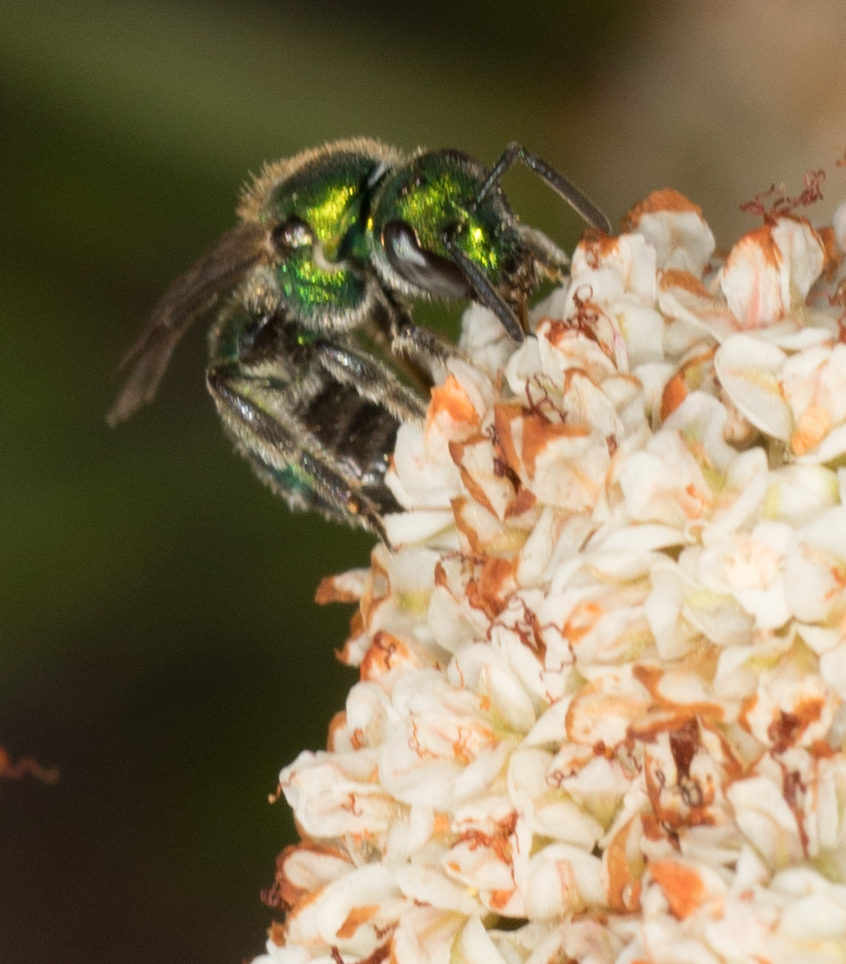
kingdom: Animalia
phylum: Arthropoda
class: Insecta
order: Hymenoptera
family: Halictidae
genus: Augochlorella
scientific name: Augochlorella pomoniella
